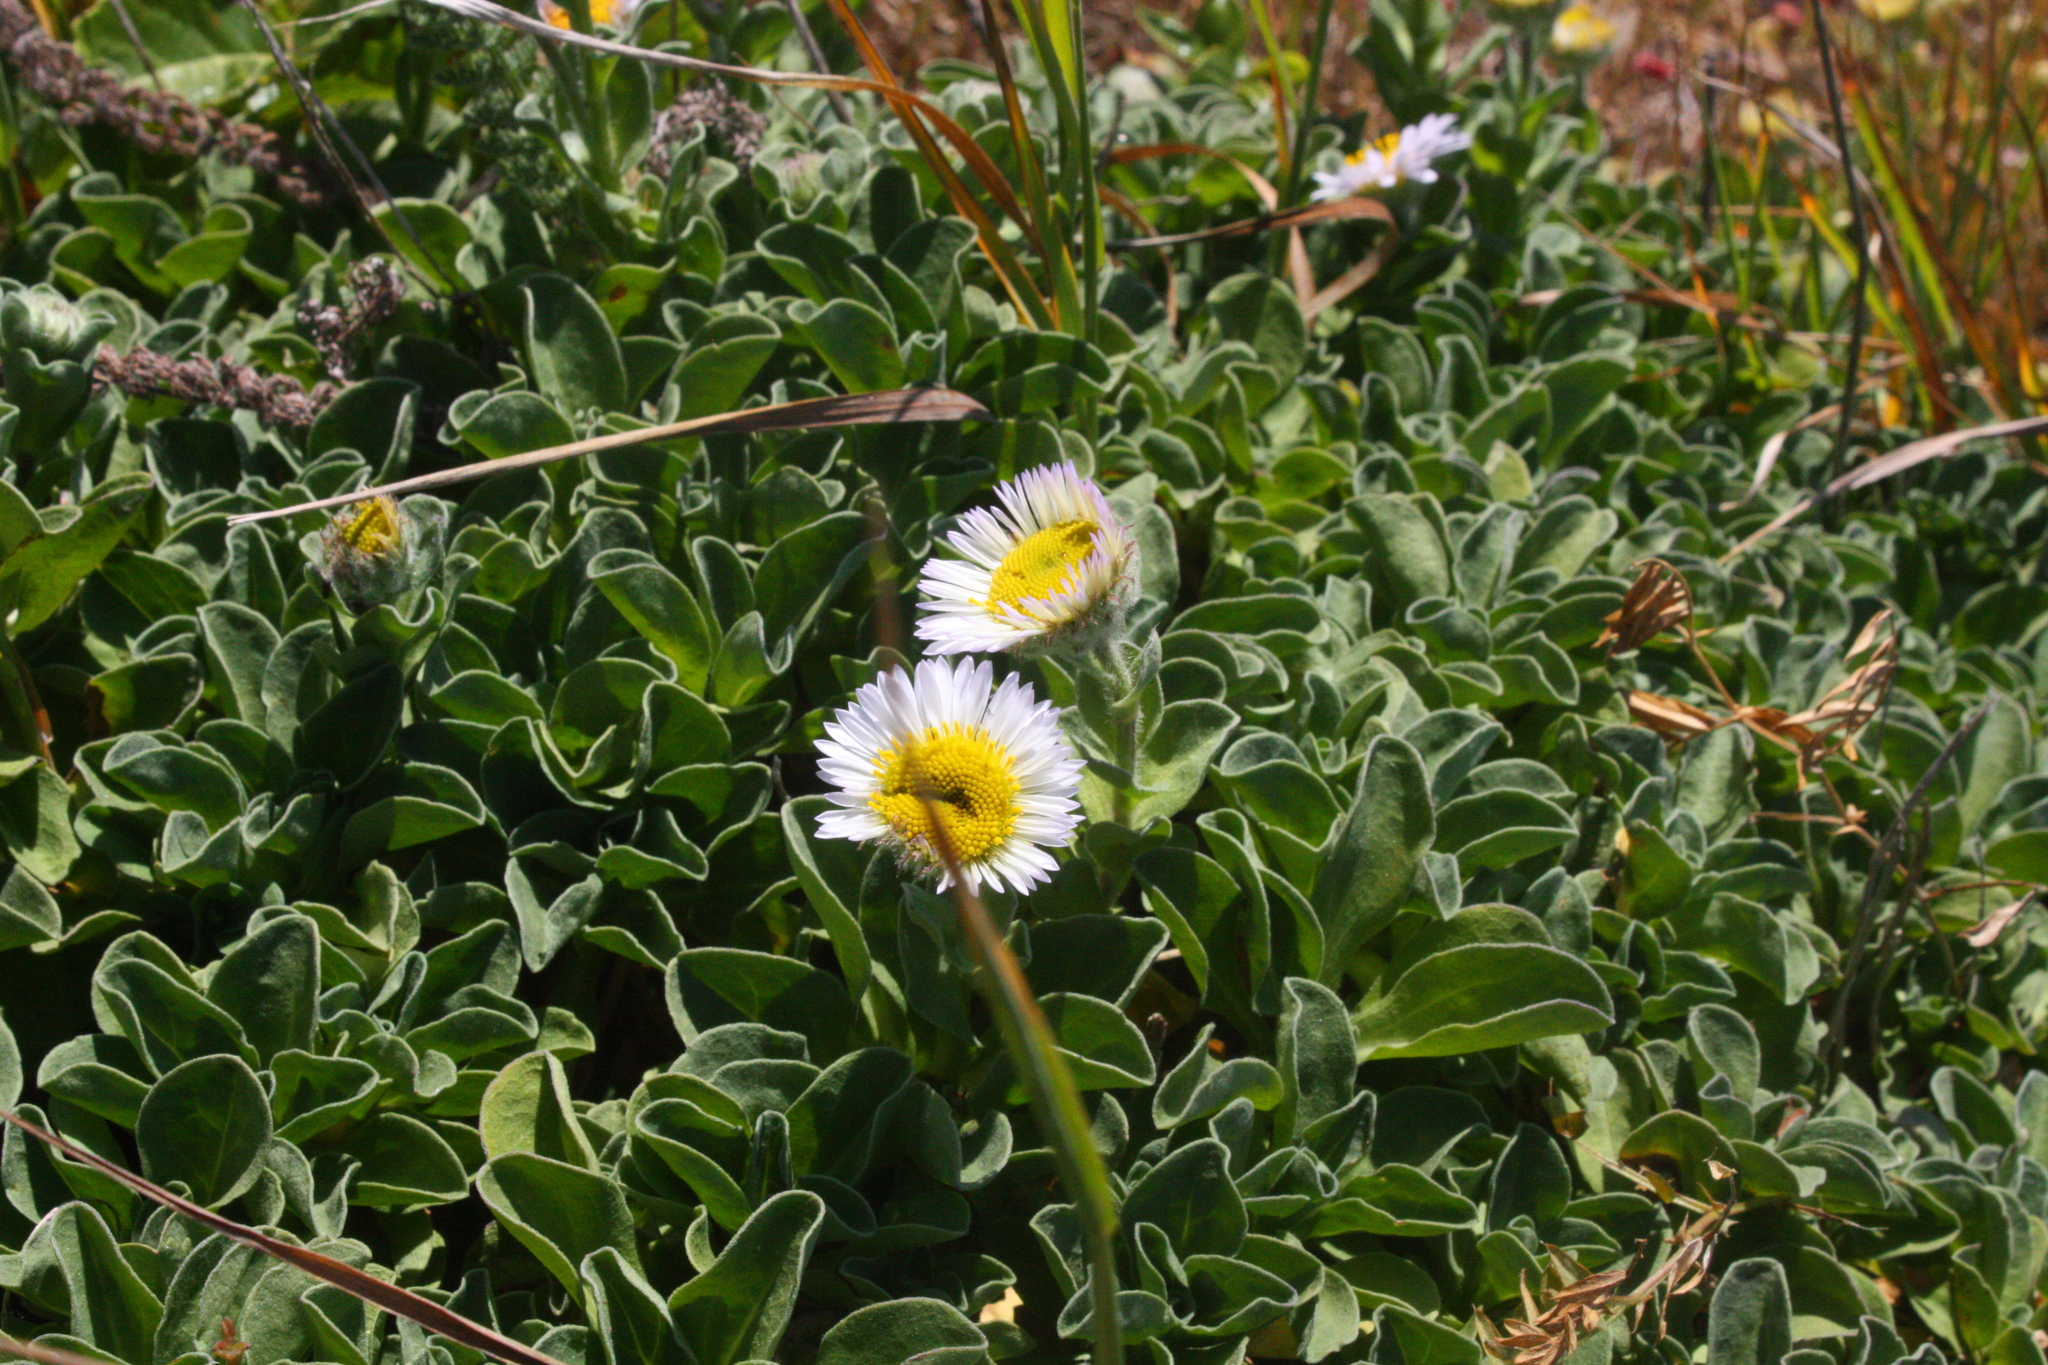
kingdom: Plantae
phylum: Tracheophyta
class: Magnoliopsida
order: Asterales
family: Asteraceae
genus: Erigeron
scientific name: Erigeron glaucus
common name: Seaside daisy
